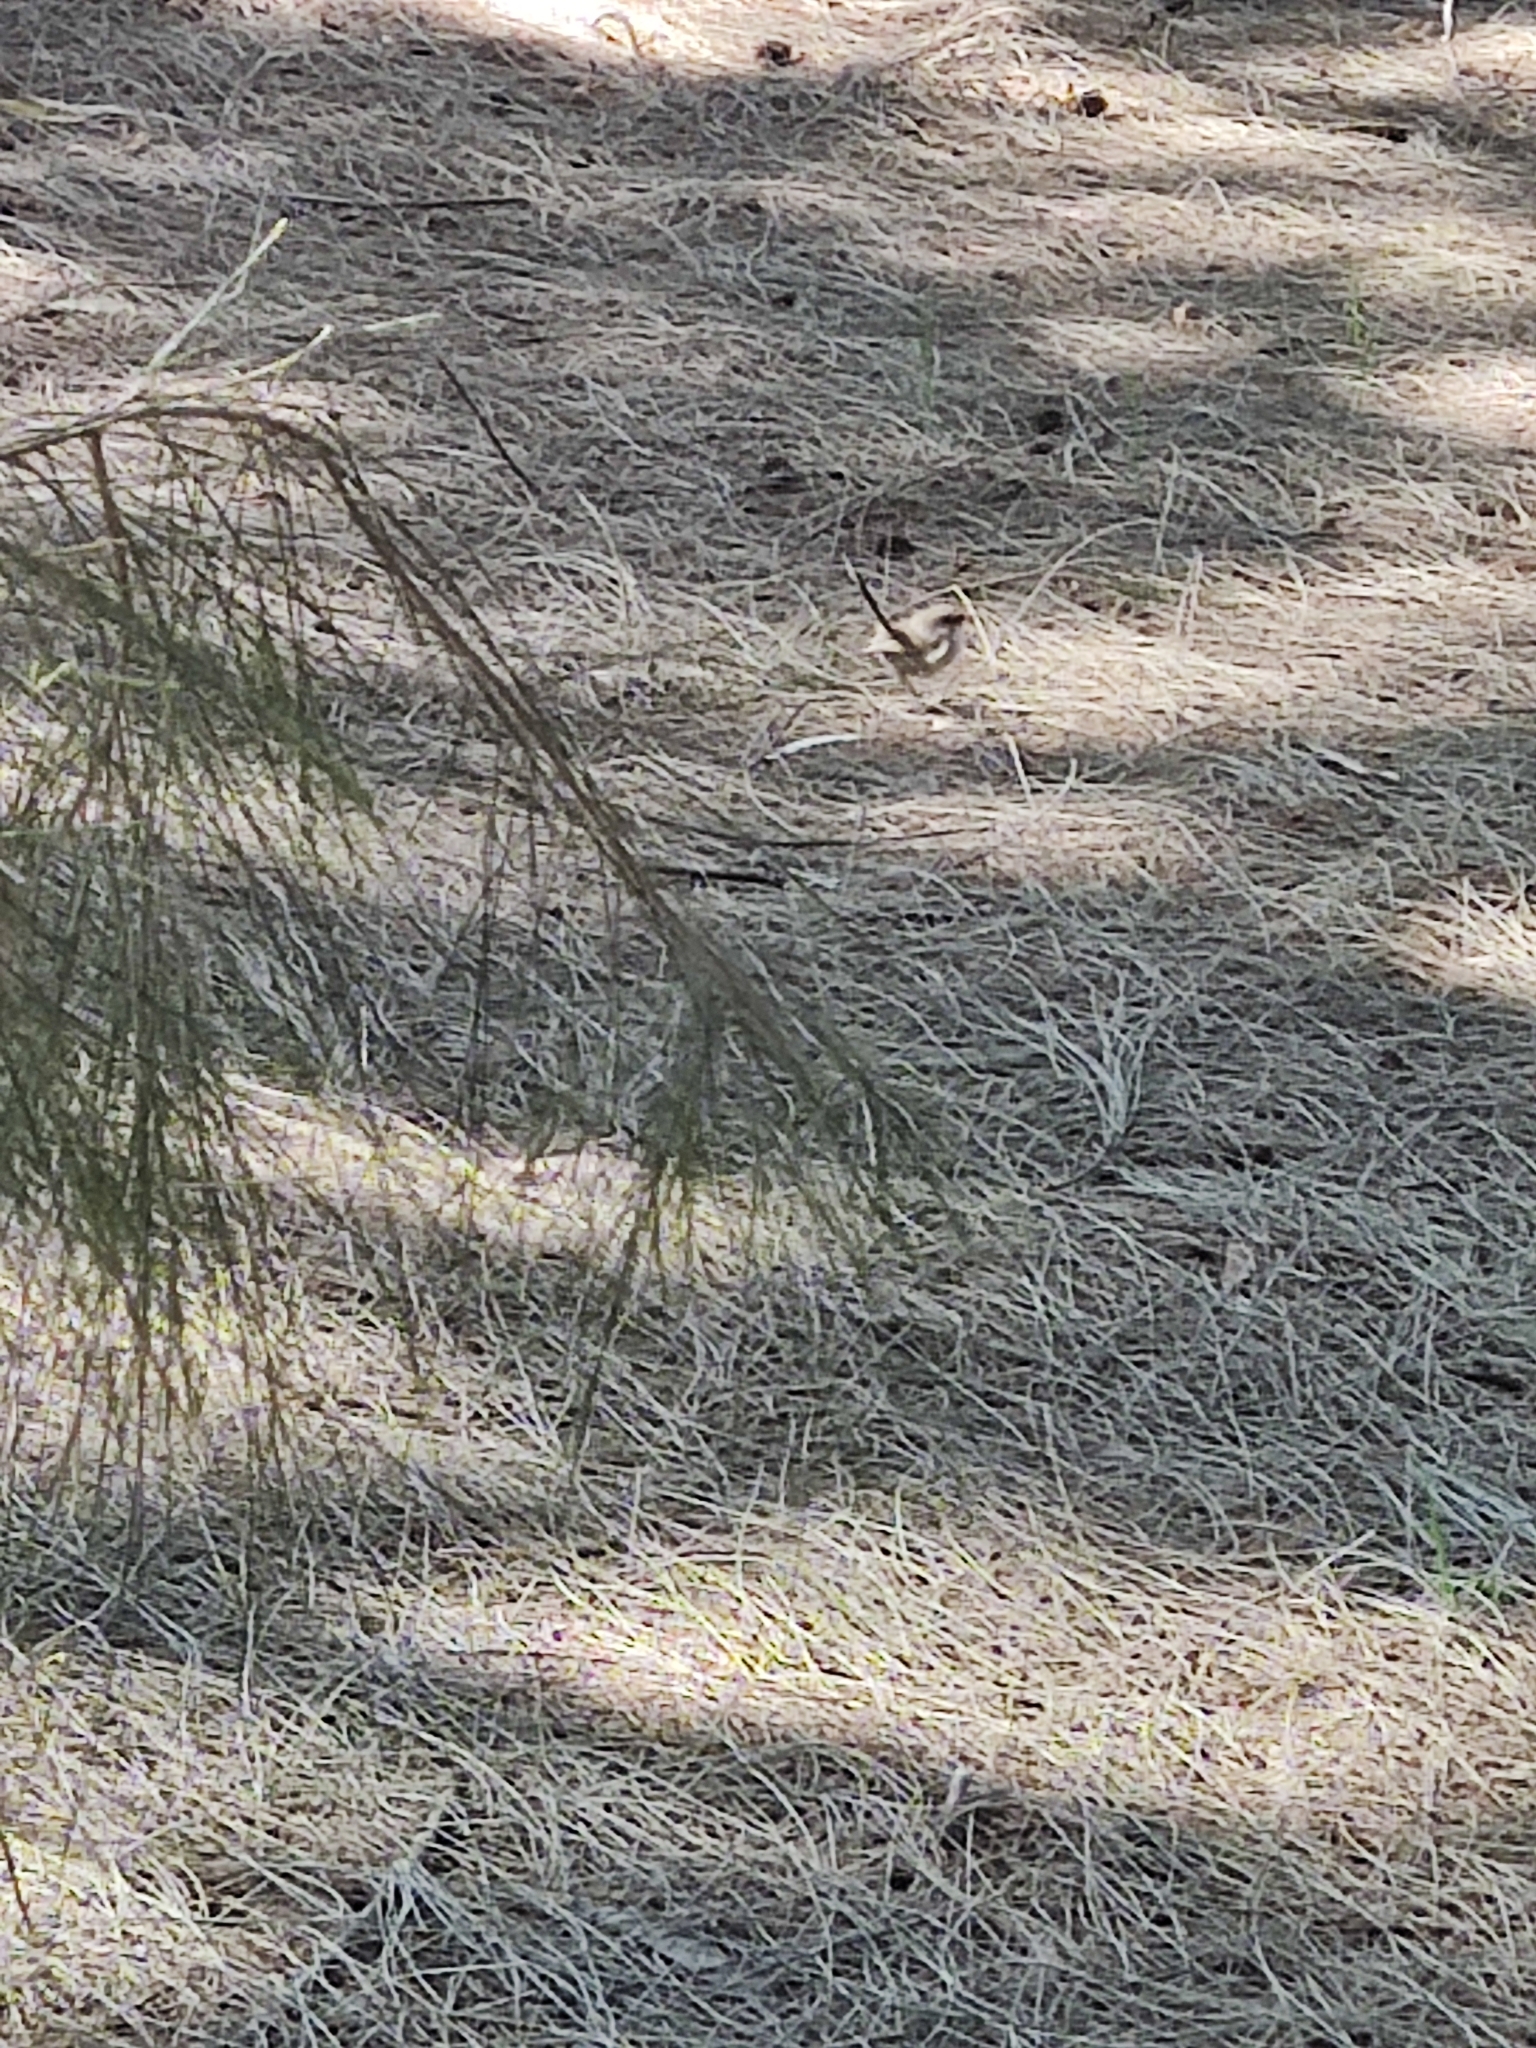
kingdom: Animalia
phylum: Chordata
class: Aves
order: Passeriformes
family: Maluridae
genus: Malurus
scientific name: Malurus cyaneus
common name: Superb fairywren
